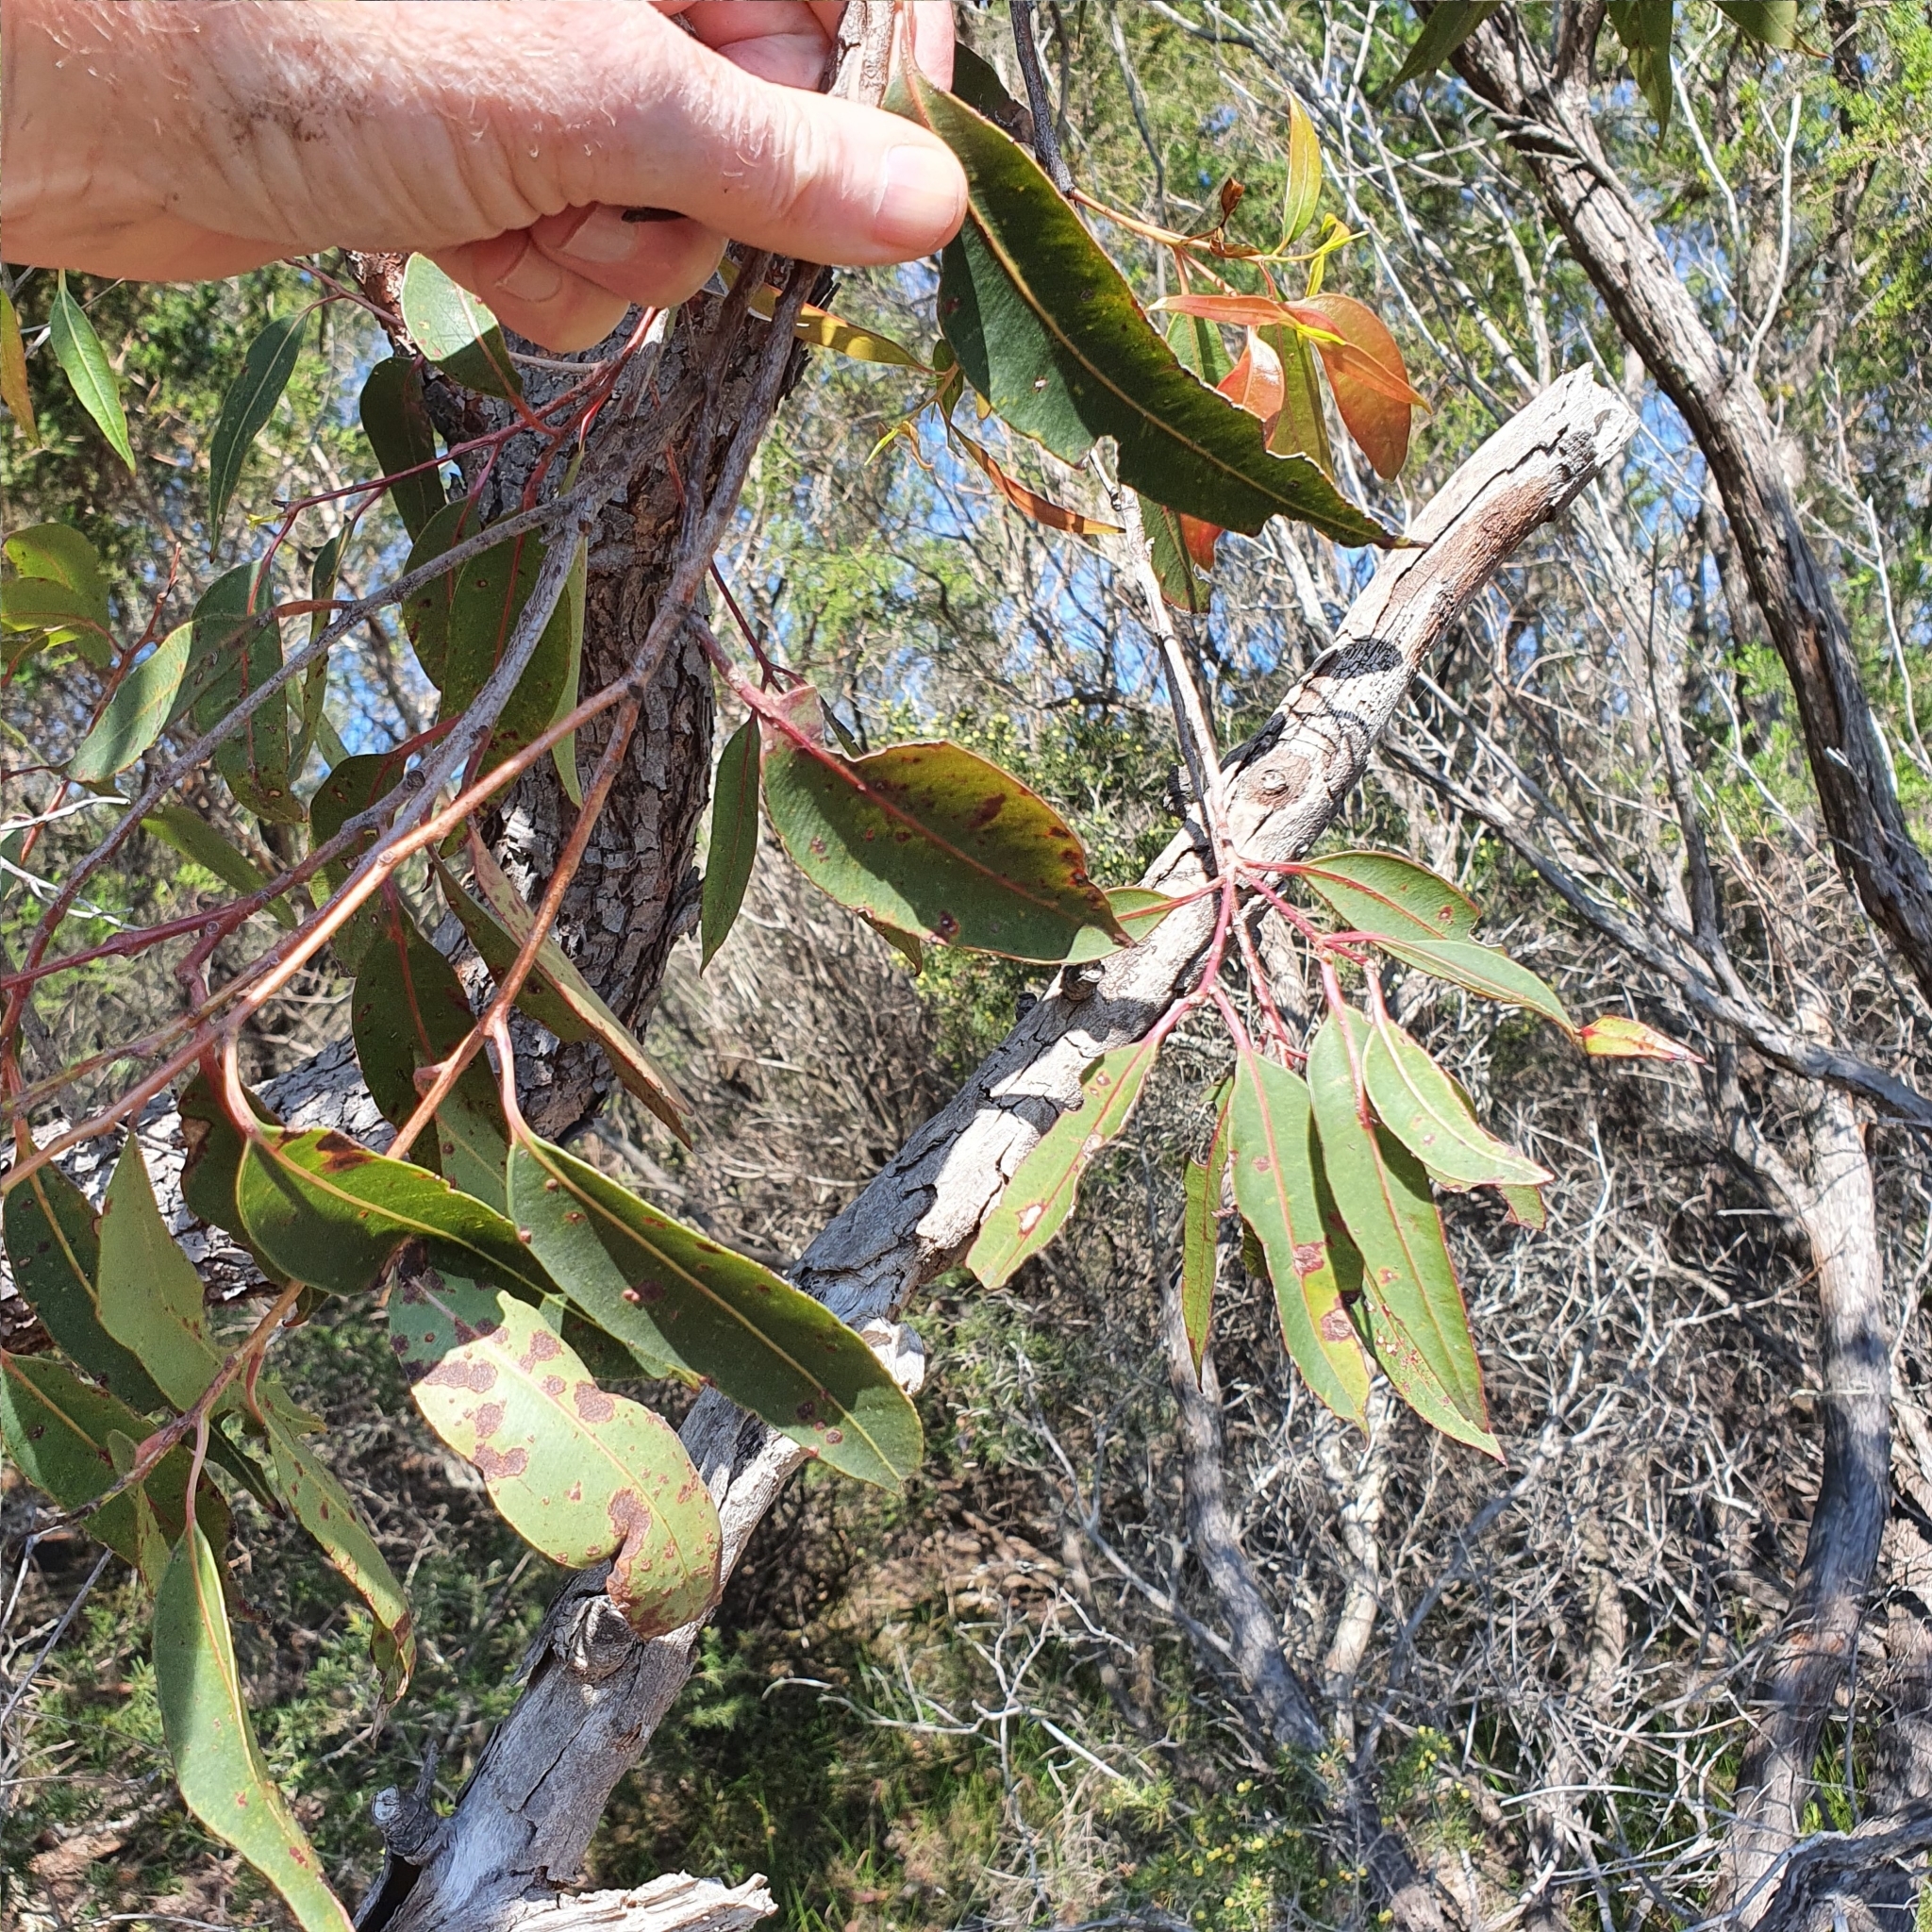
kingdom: Plantae
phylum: Tracheophyta
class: Magnoliopsida
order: Myrtales
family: Myrtaceae
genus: Corymbia
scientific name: Corymbia gummifera
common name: Red bloodwood
